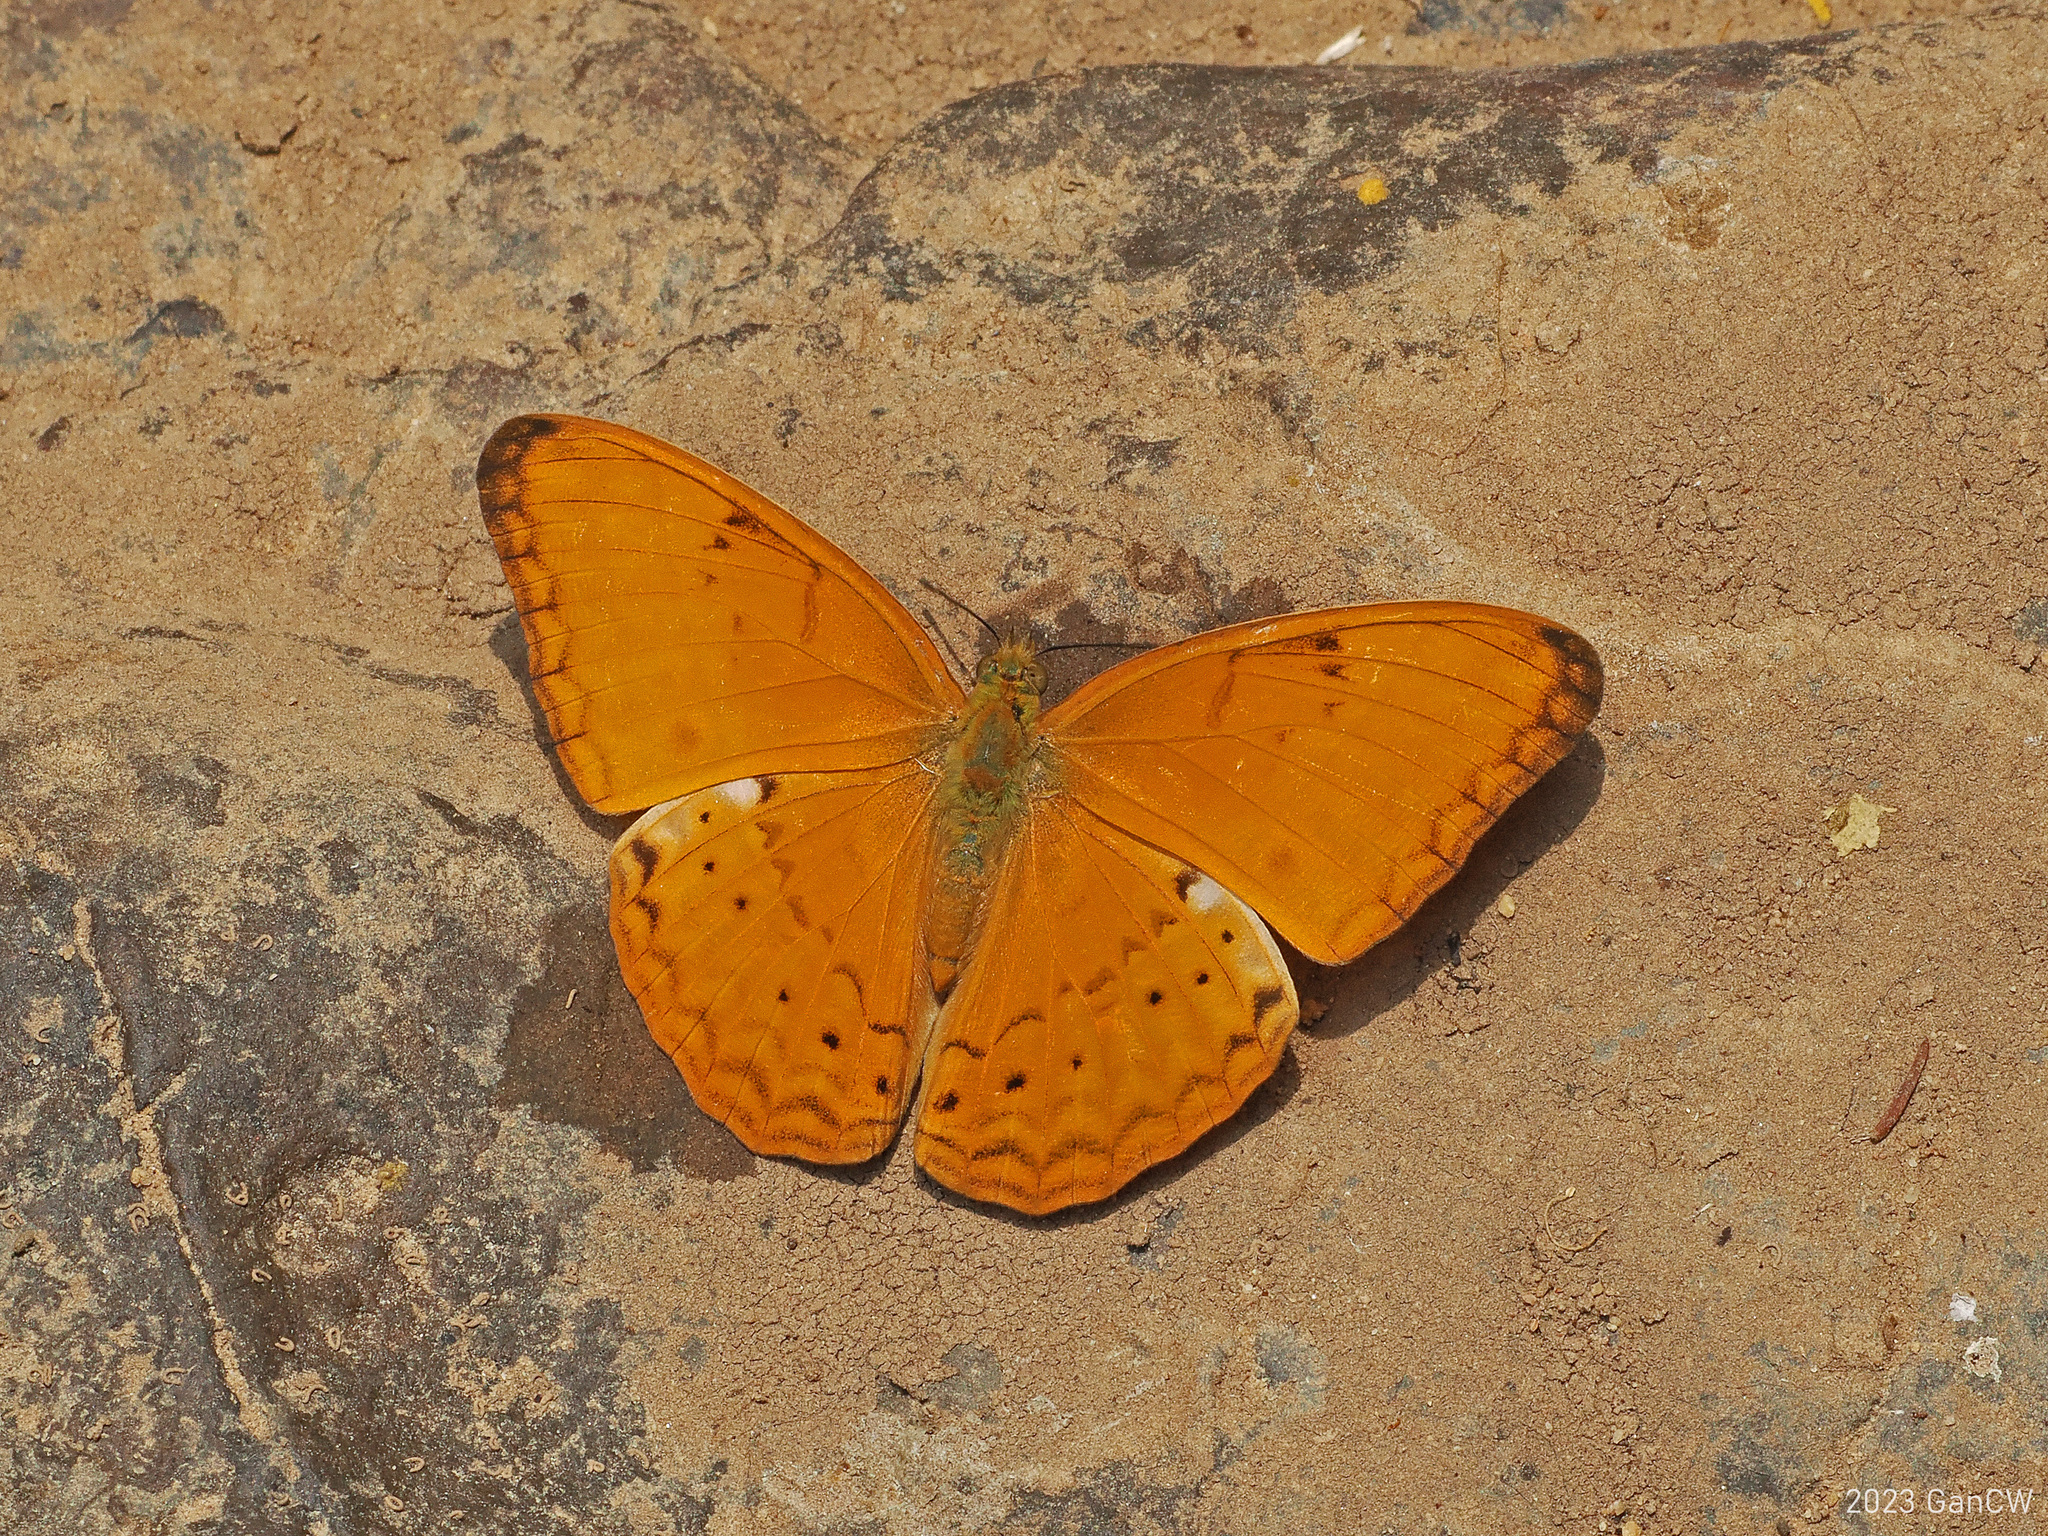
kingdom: Animalia
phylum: Arthropoda
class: Insecta
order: Lepidoptera
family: Nymphalidae
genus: Cirrochroa
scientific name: Cirrochroa tyche
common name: Common yeoman
